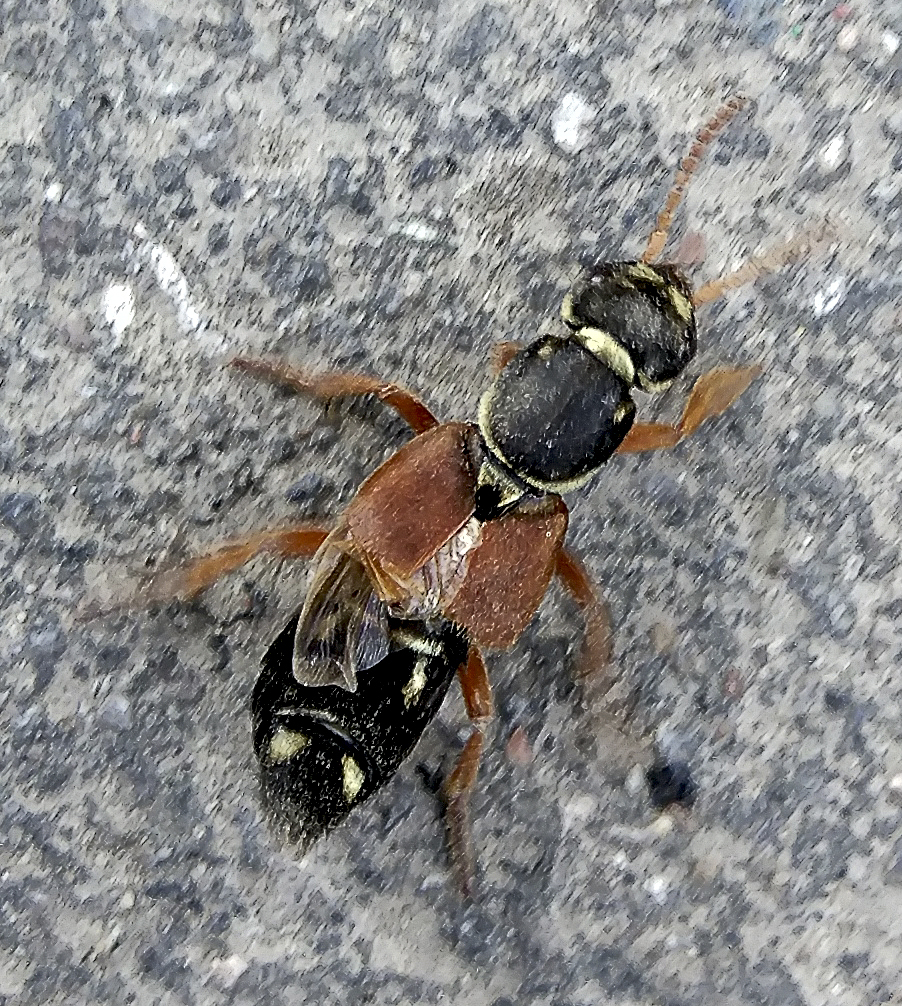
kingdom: Animalia
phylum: Arthropoda
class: Insecta
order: Coleoptera
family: Staphylinidae
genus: Staphylinus
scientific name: Staphylinus caesareus
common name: Staph beetle
